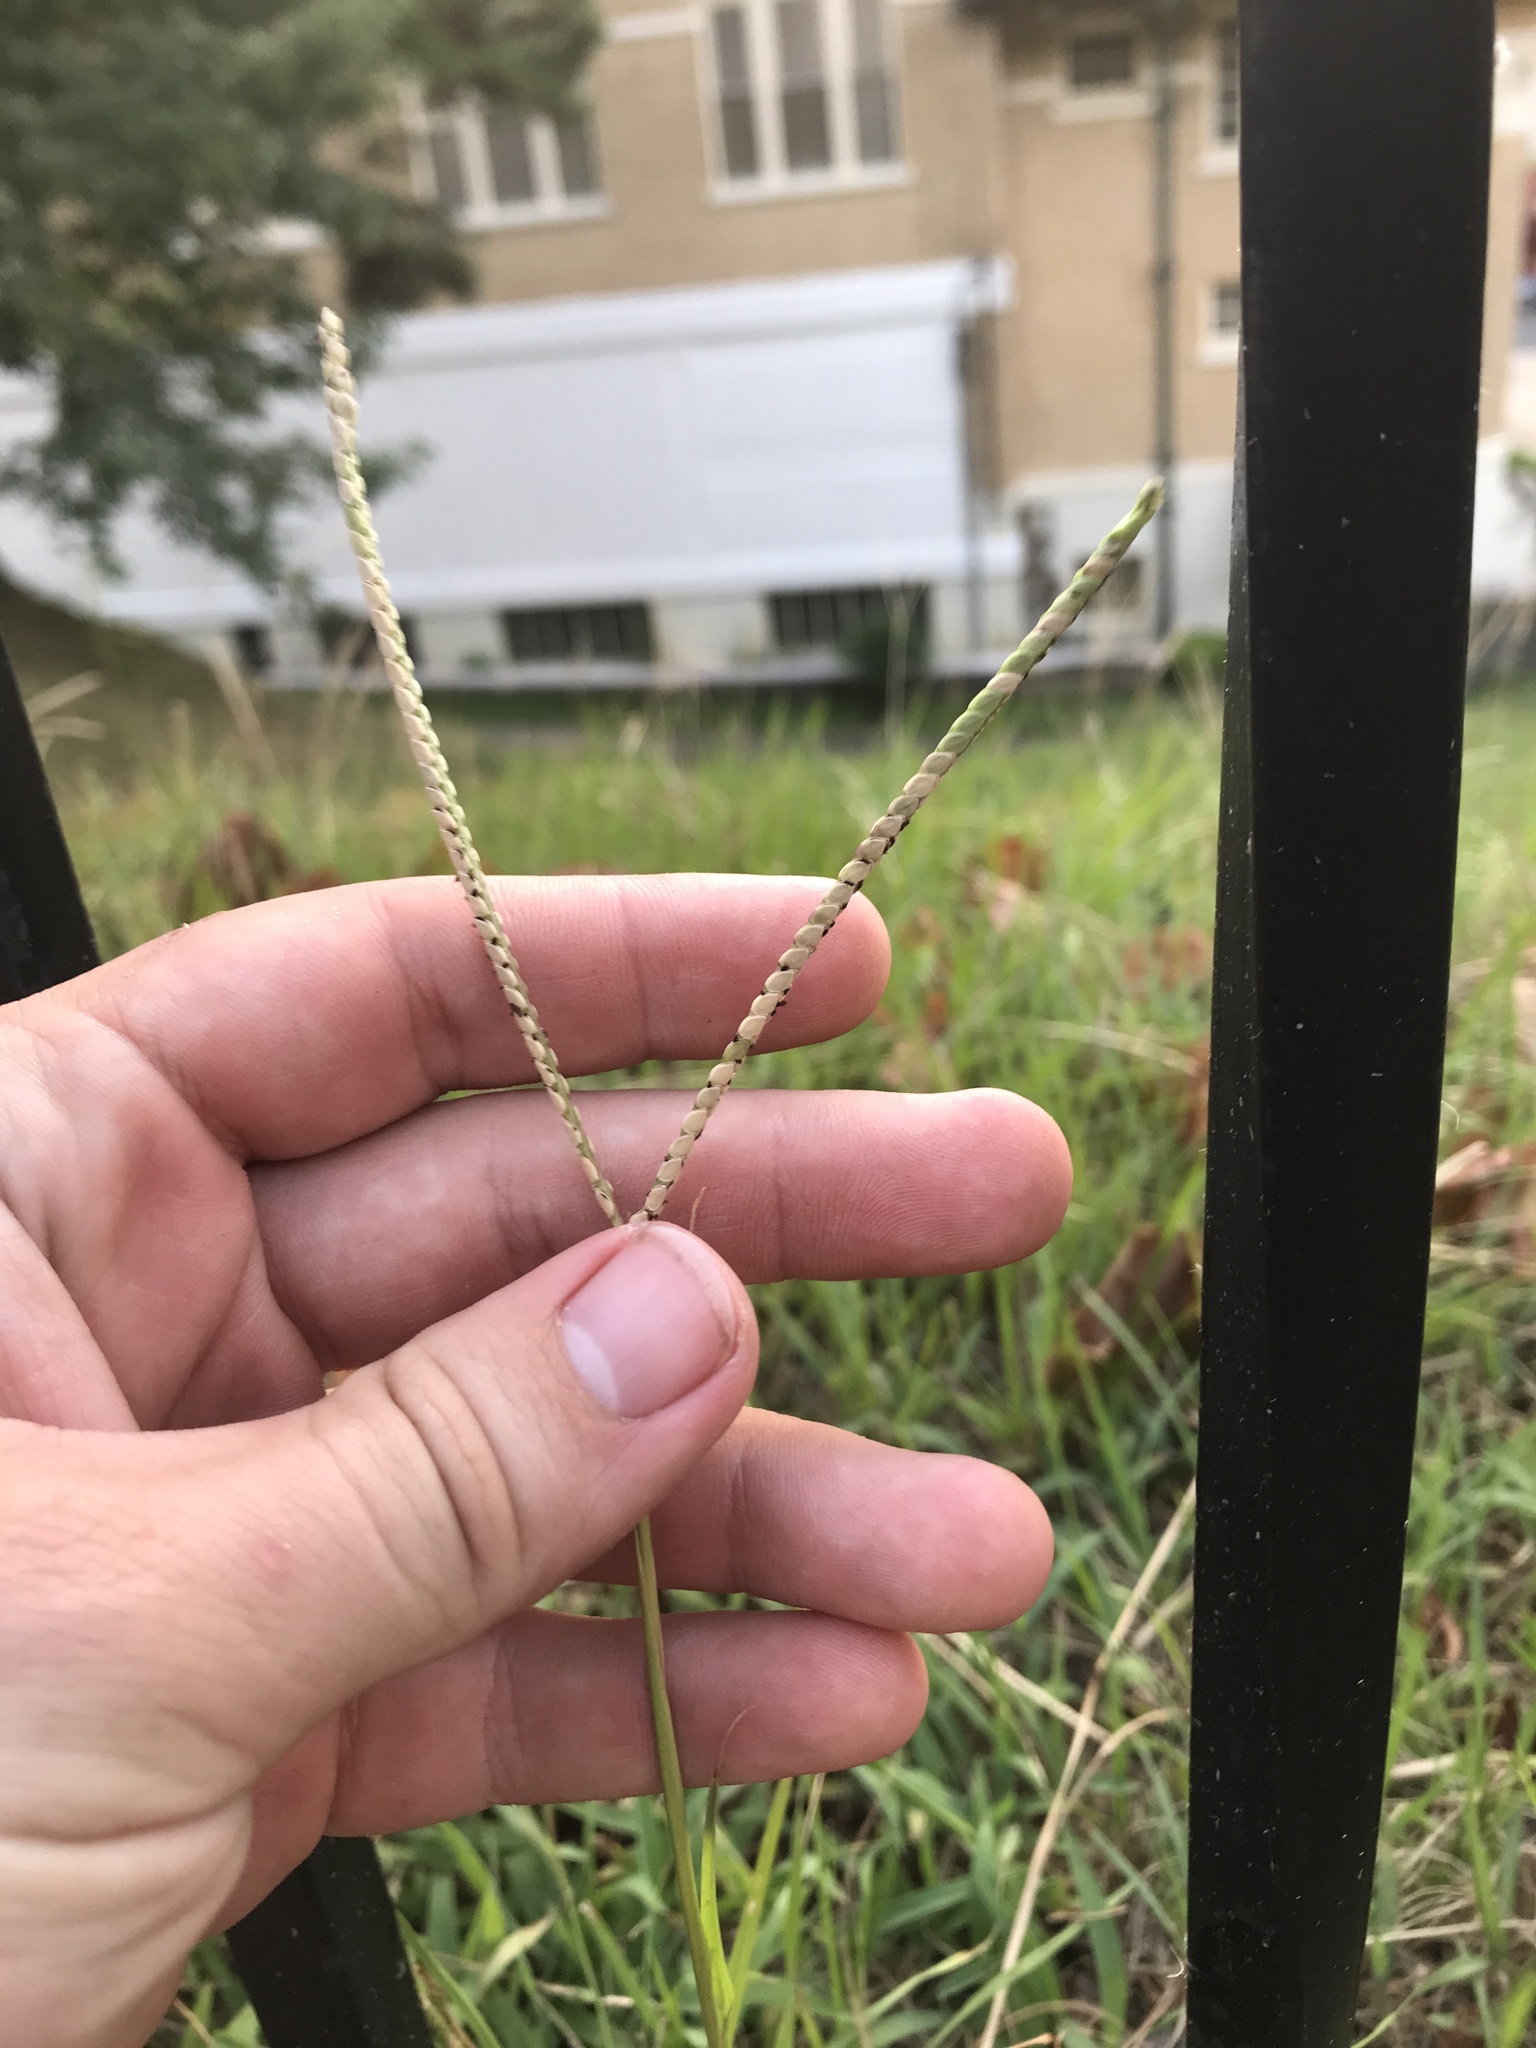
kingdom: Plantae
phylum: Tracheophyta
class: Liliopsida
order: Poales
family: Poaceae
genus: Paspalum
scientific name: Paspalum notatum
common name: Bahiagrass
